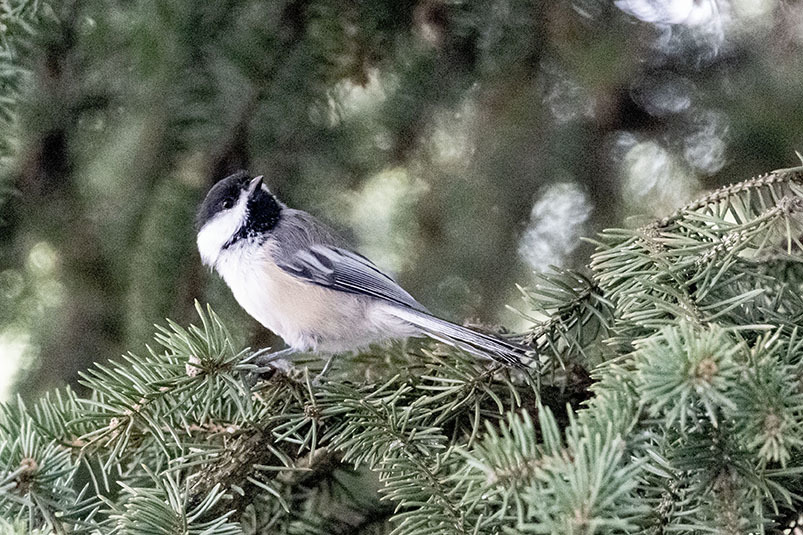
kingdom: Animalia
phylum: Chordata
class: Aves
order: Passeriformes
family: Paridae
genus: Poecile
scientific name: Poecile atricapillus
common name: Black-capped chickadee
